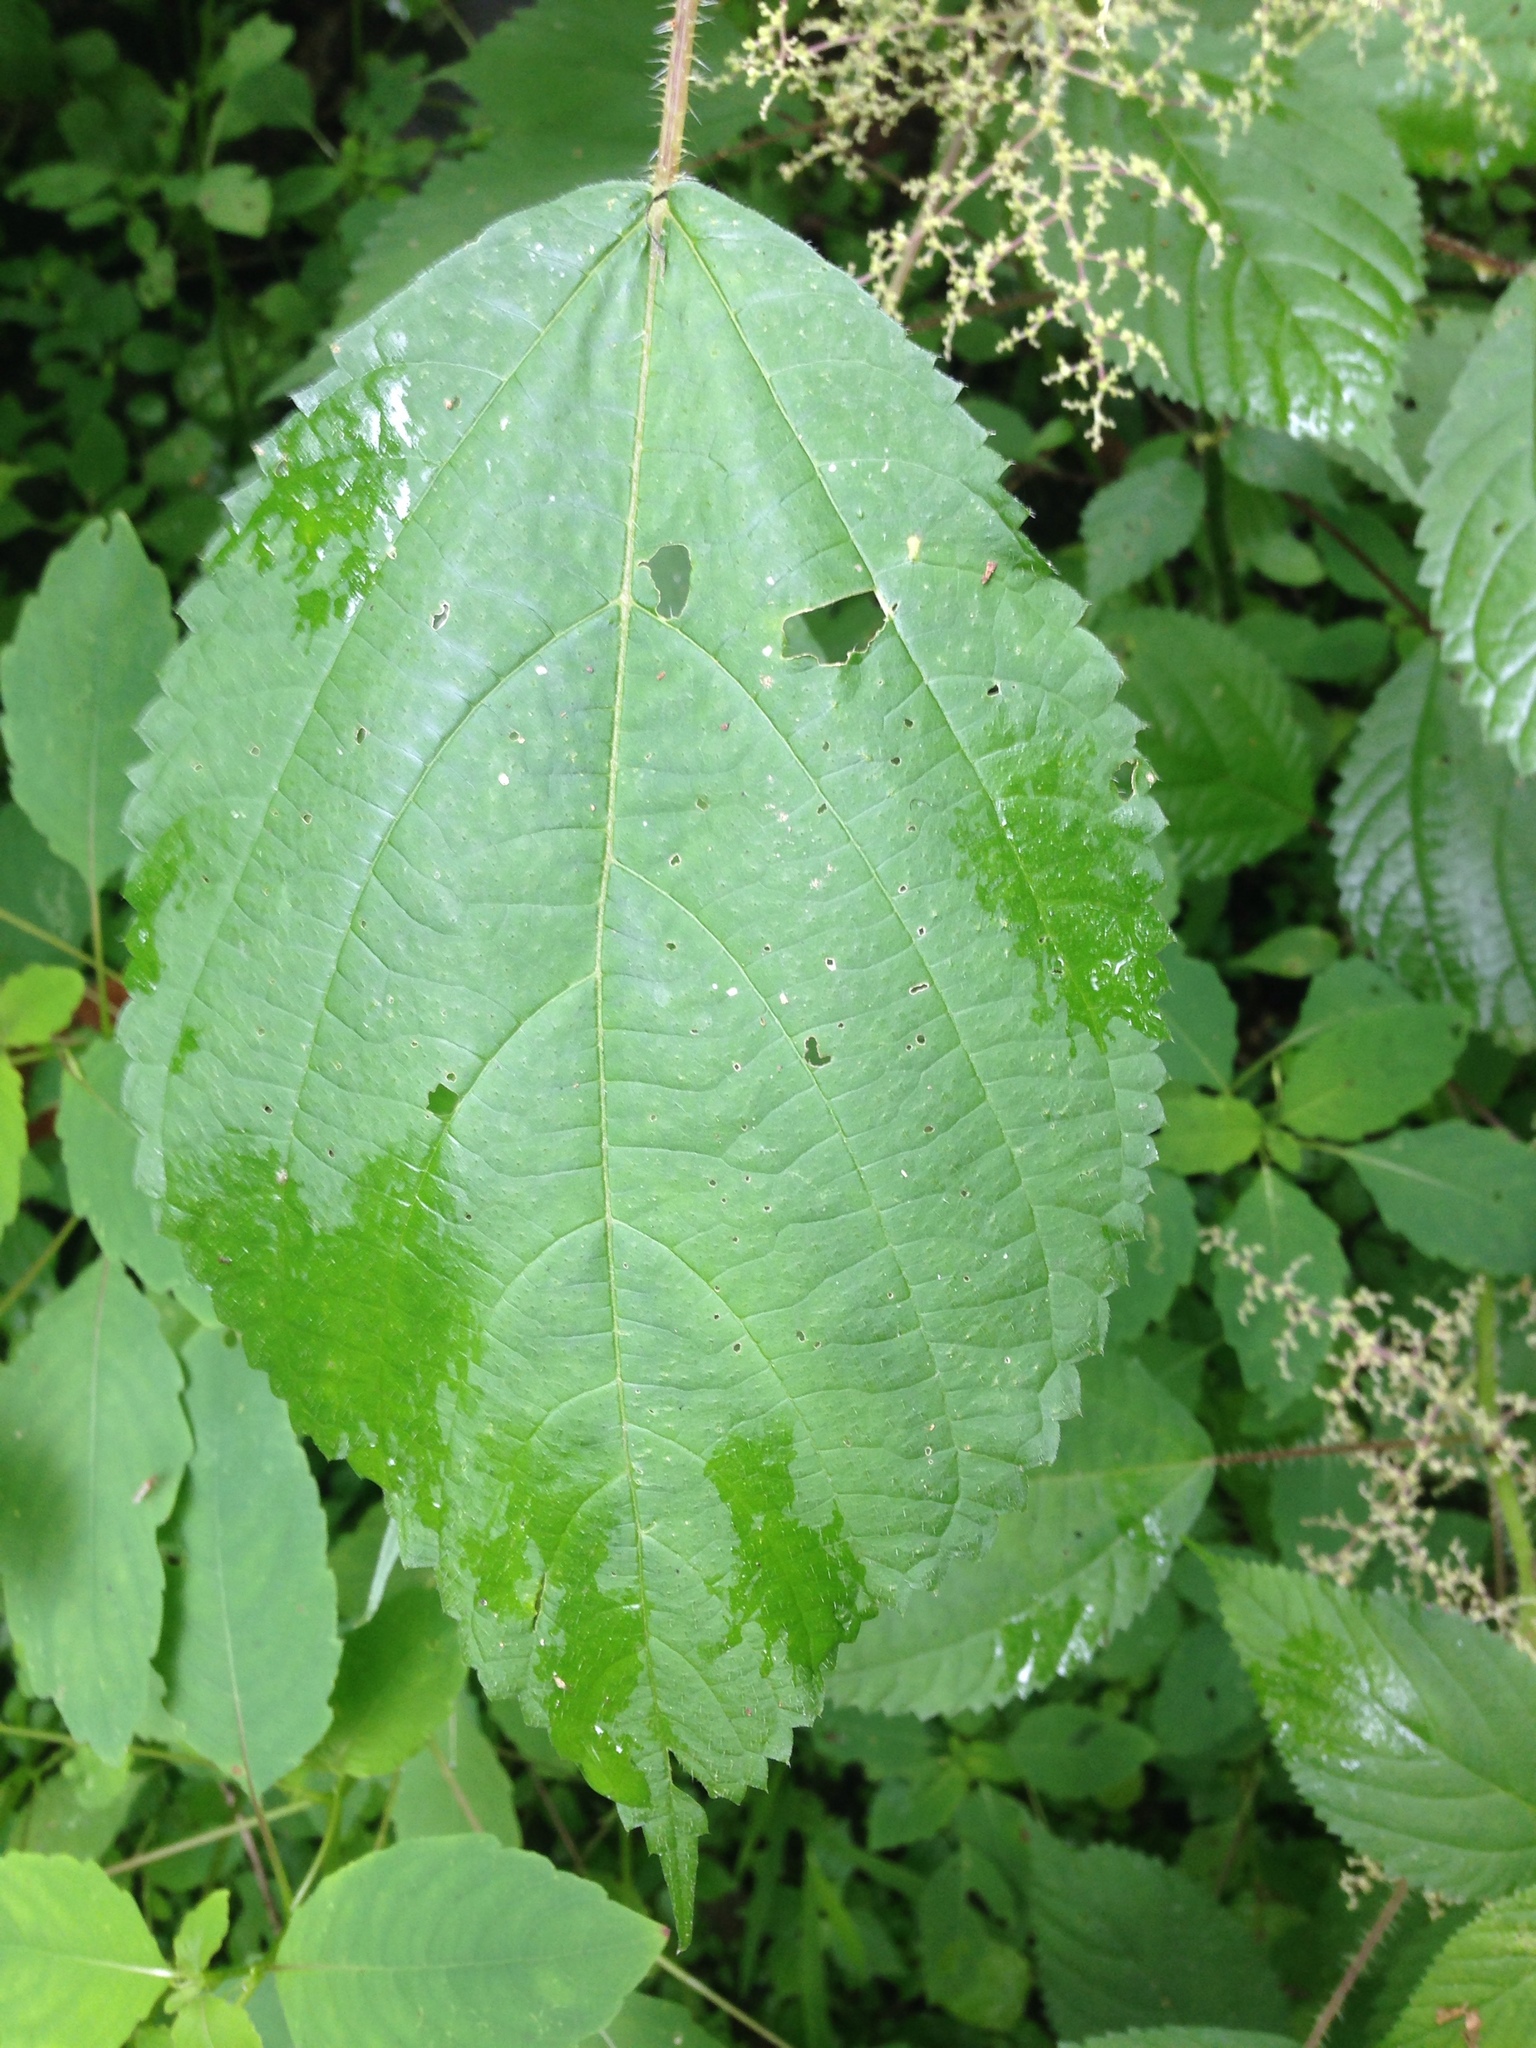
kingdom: Plantae
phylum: Tracheophyta
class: Magnoliopsida
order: Rosales
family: Urticaceae
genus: Laportea
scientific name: Laportea canadensis
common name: Canada nettle
